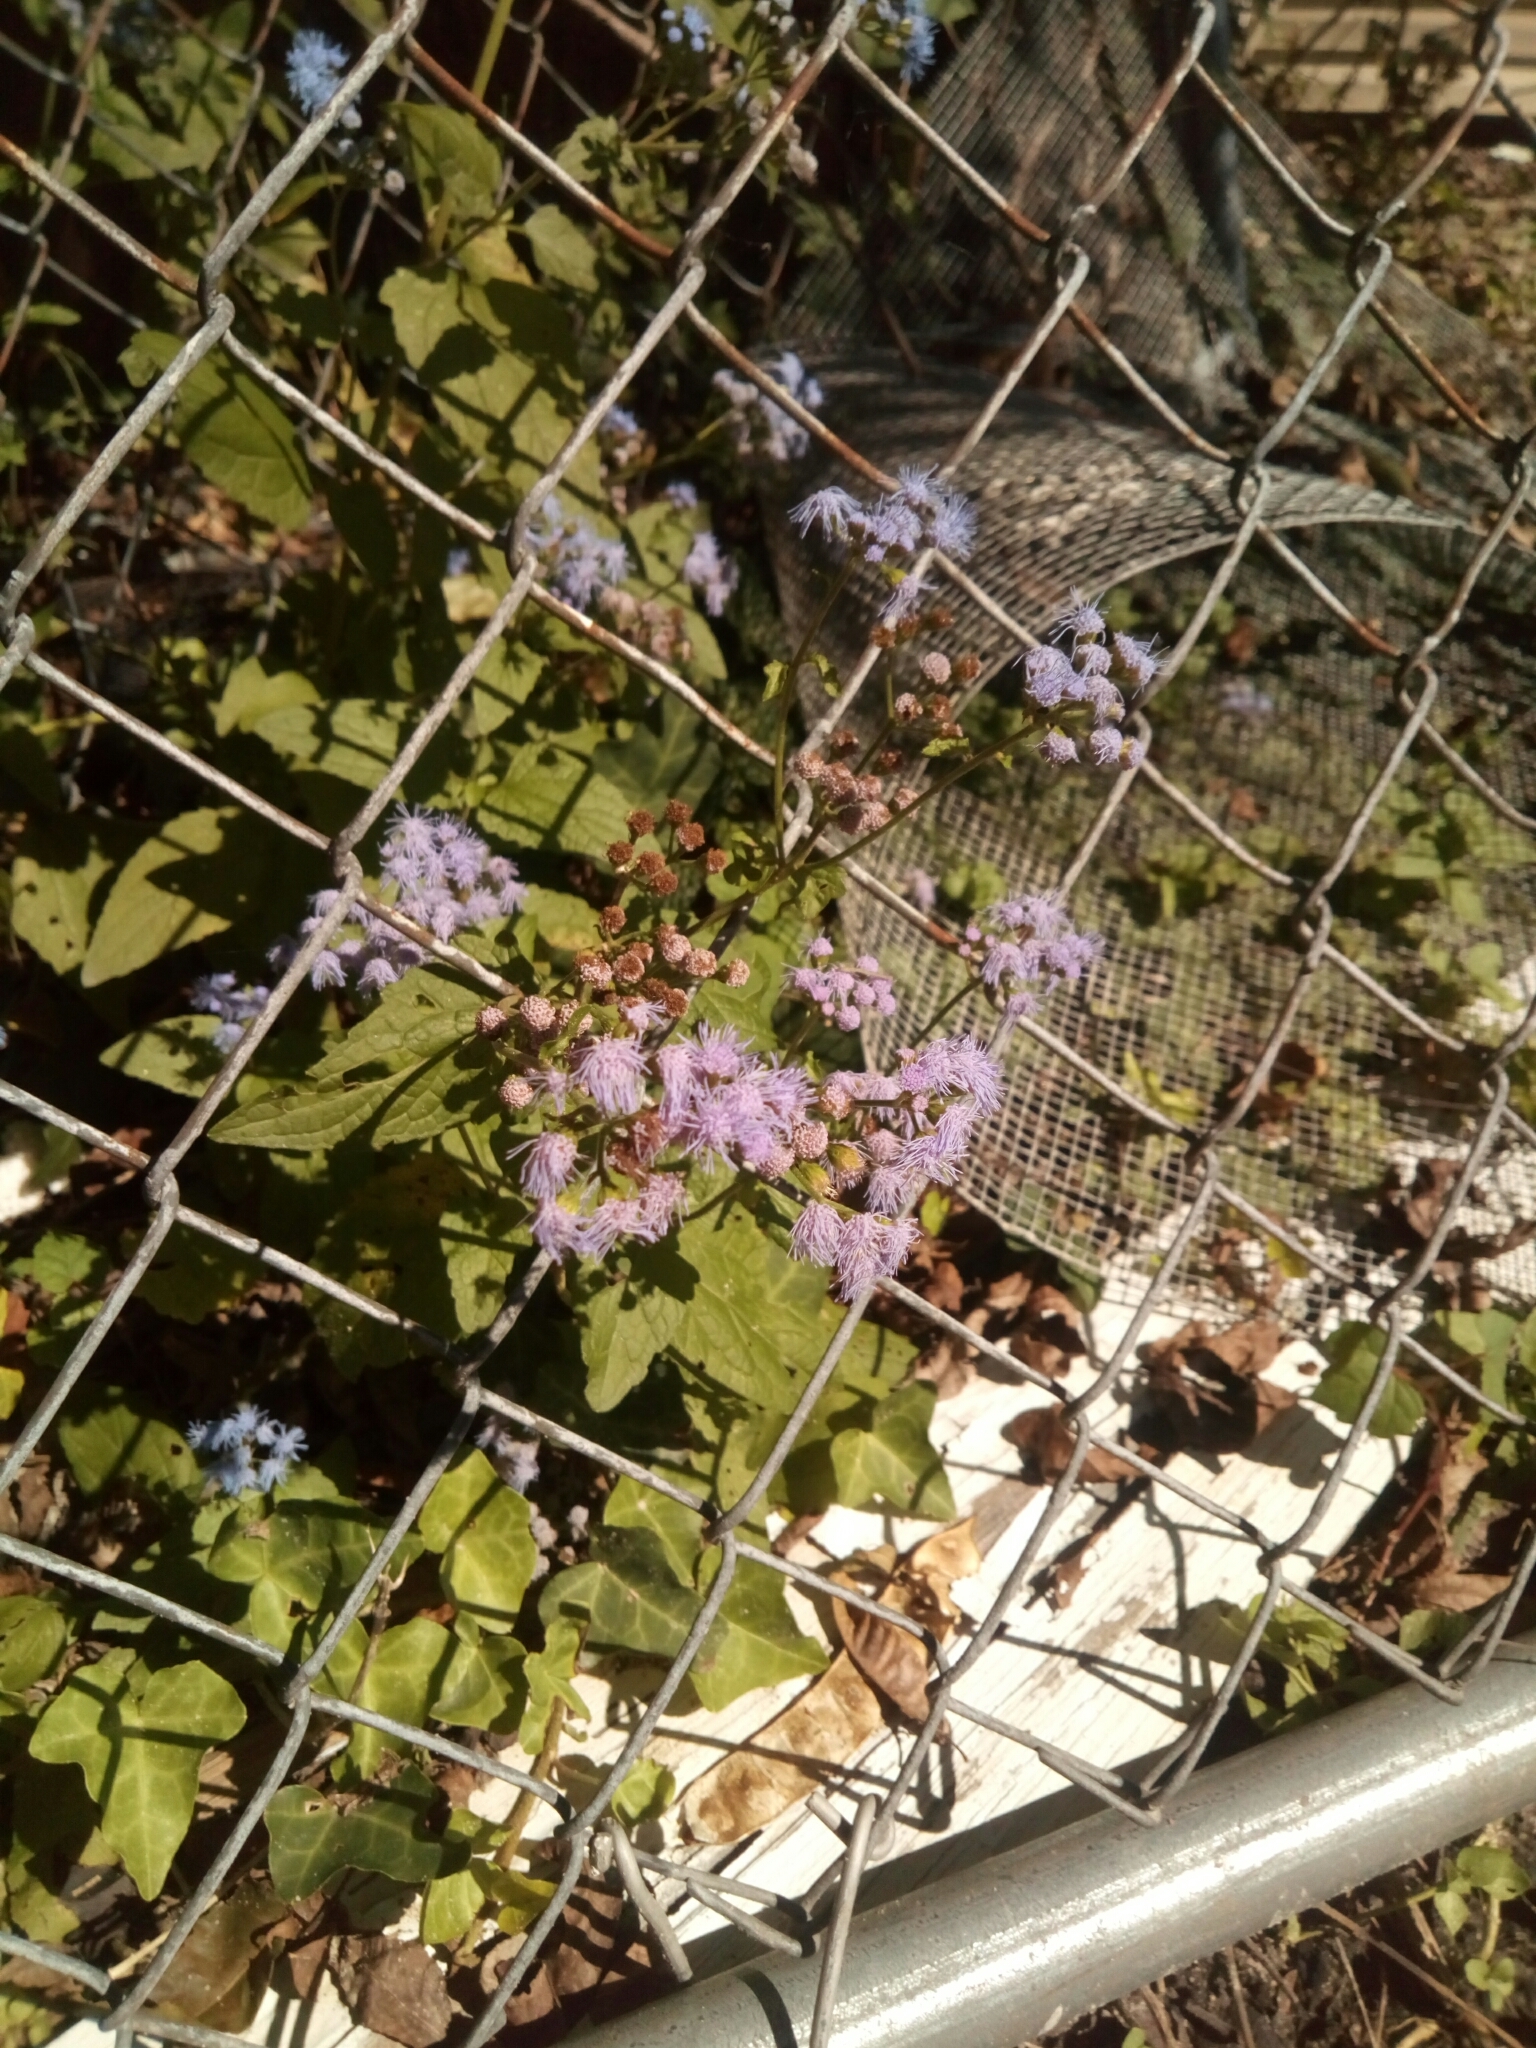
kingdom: Plantae
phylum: Tracheophyta
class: Magnoliopsida
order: Asterales
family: Asteraceae
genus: Conoclinium
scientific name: Conoclinium coelestinum
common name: Blue mistflower
